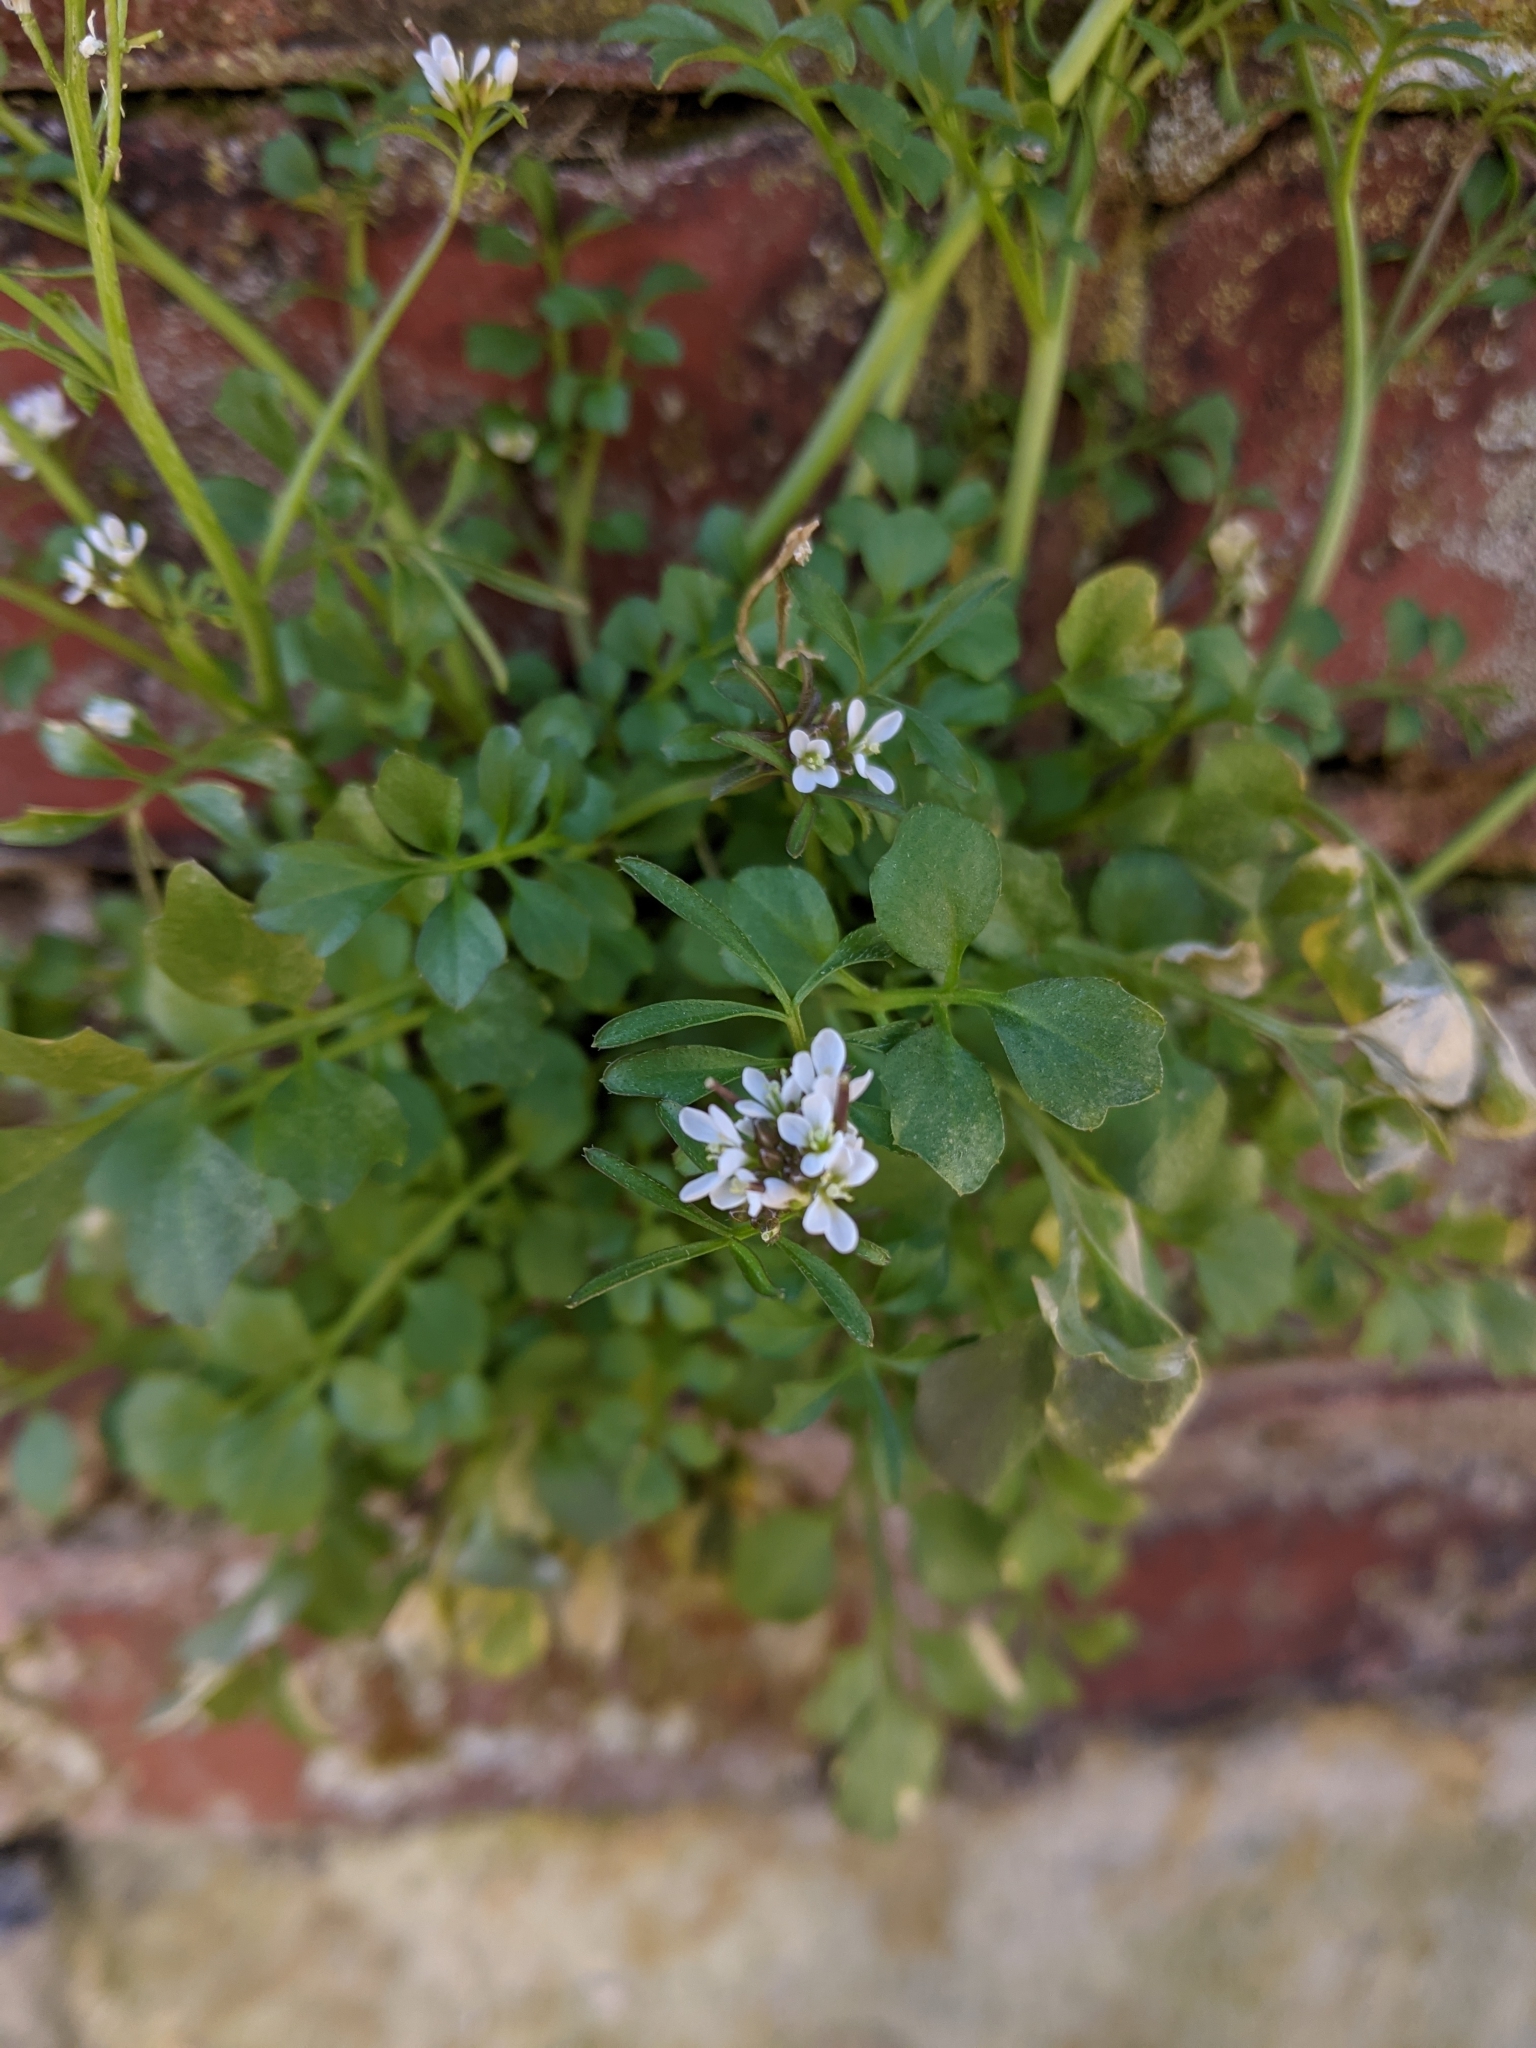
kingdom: Plantae
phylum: Tracheophyta
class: Magnoliopsida
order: Brassicales
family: Brassicaceae
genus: Cardamine
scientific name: Cardamine hirsuta
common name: Hairy bittercress
